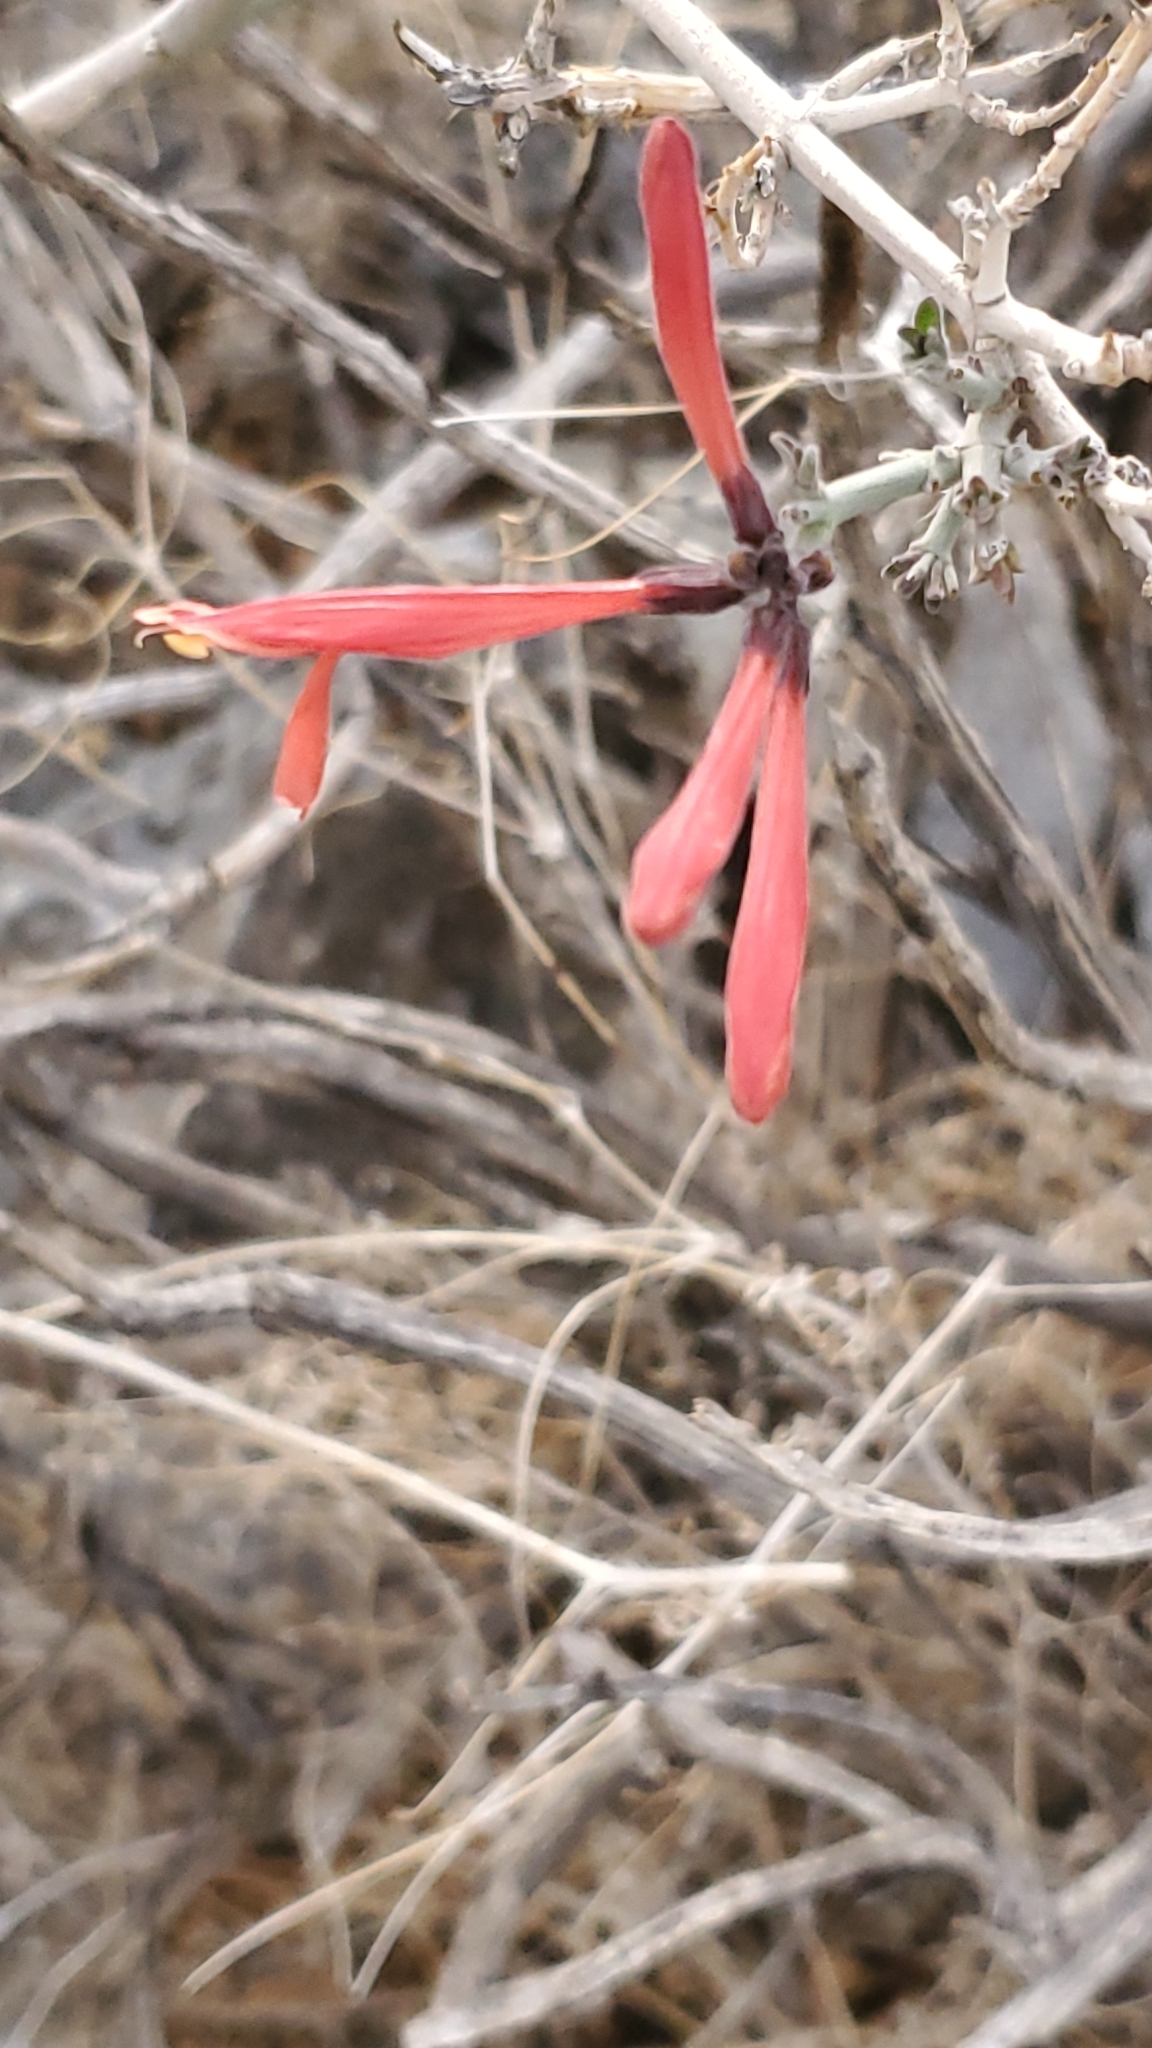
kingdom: Plantae
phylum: Tracheophyta
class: Magnoliopsida
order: Lamiales
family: Acanthaceae
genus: Justicia
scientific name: Justicia californica
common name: Chuparosa-honeysuckle
